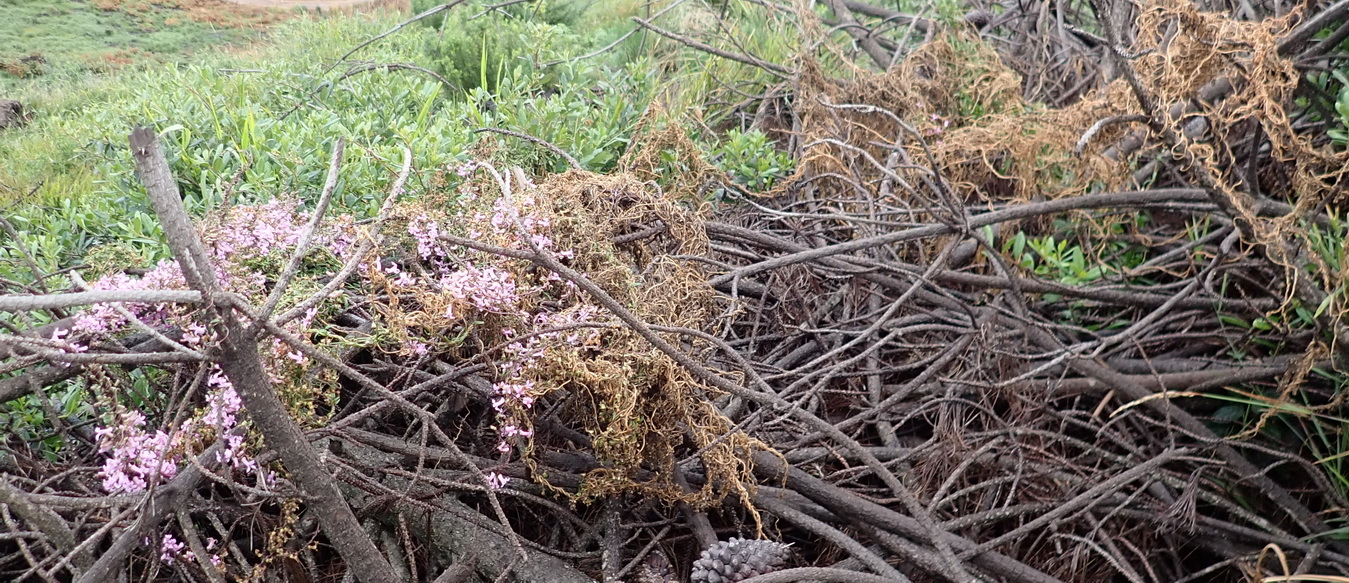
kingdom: Plantae
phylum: Tracheophyta
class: Magnoliopsida
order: Asterales
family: Campanulaceae
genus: Cyphia
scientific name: Cyphia digitata
